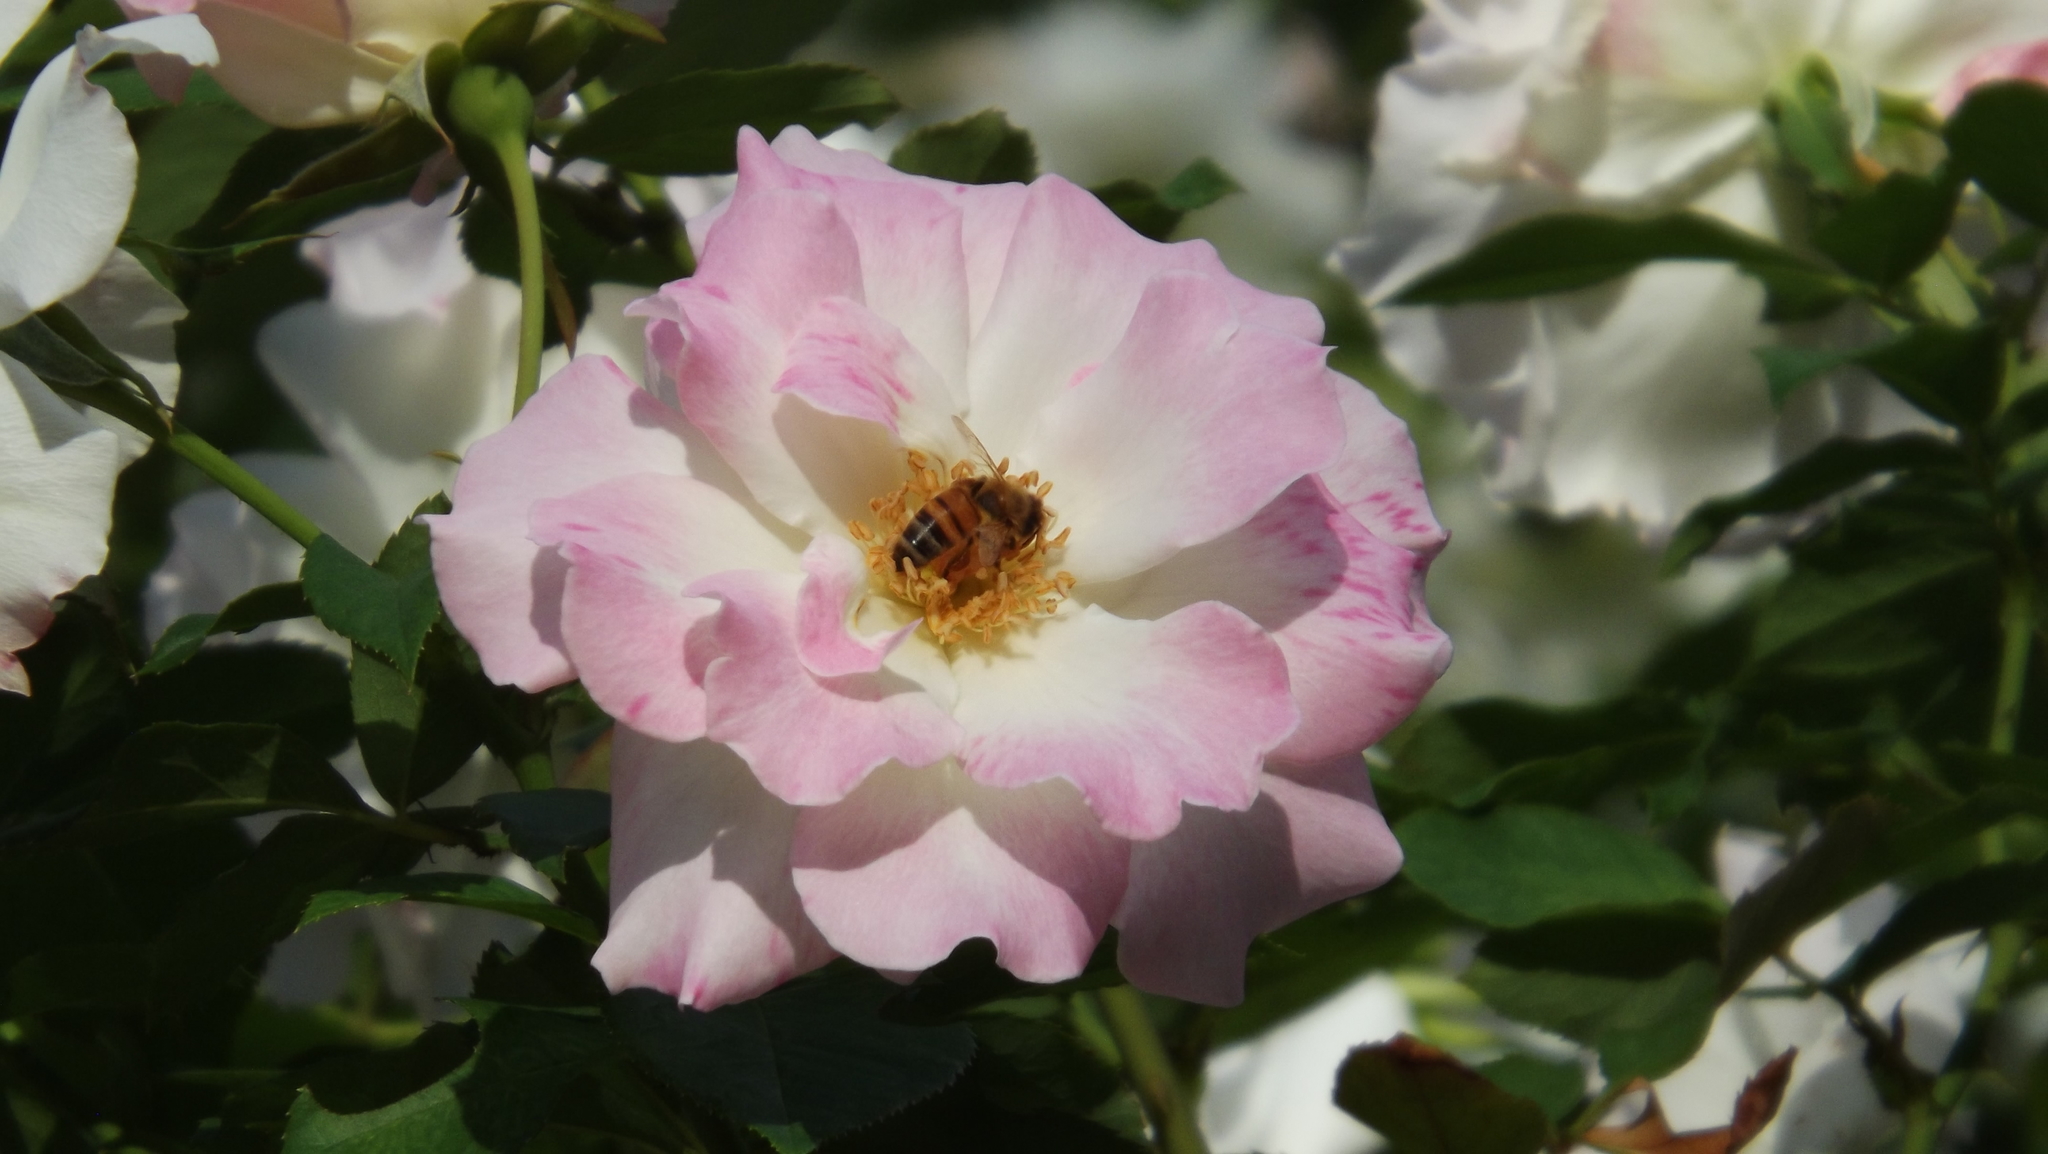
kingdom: Animalia
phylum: Arthropoda
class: Insecta
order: Hymenoptera
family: Apidae
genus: Apis
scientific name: Apis mellifera
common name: Honey bee
